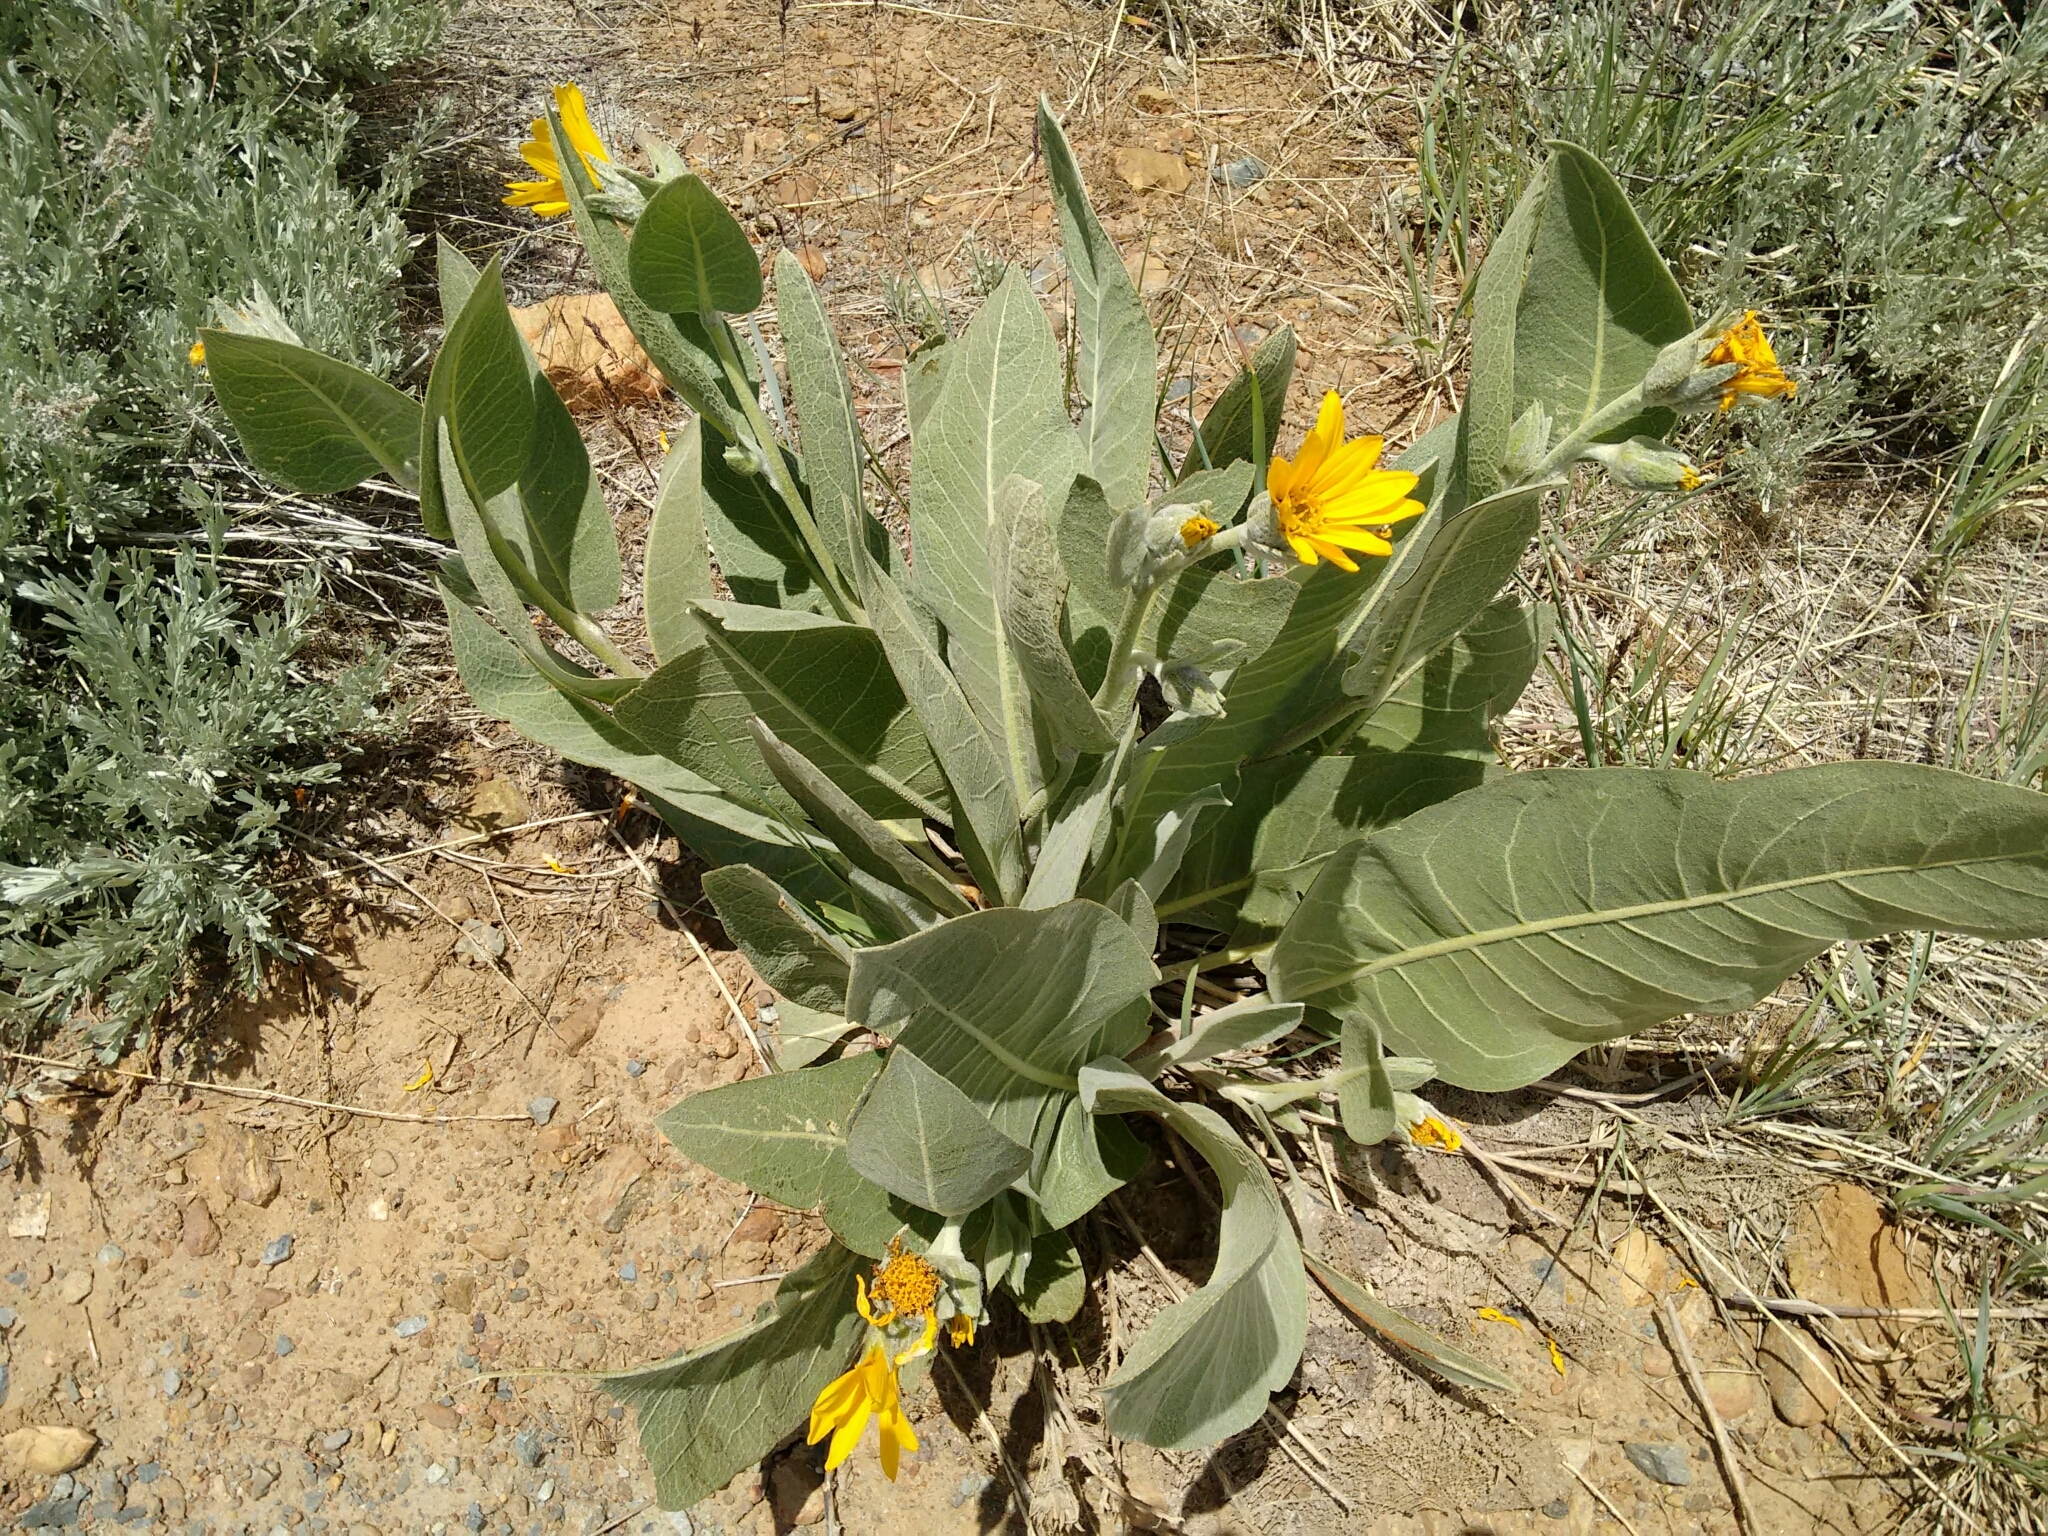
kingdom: Plantae
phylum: Tracheophyta
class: Magnoliopsida
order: Asterales
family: Asteraceae
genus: Wyethia
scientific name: Wyethia mollis
